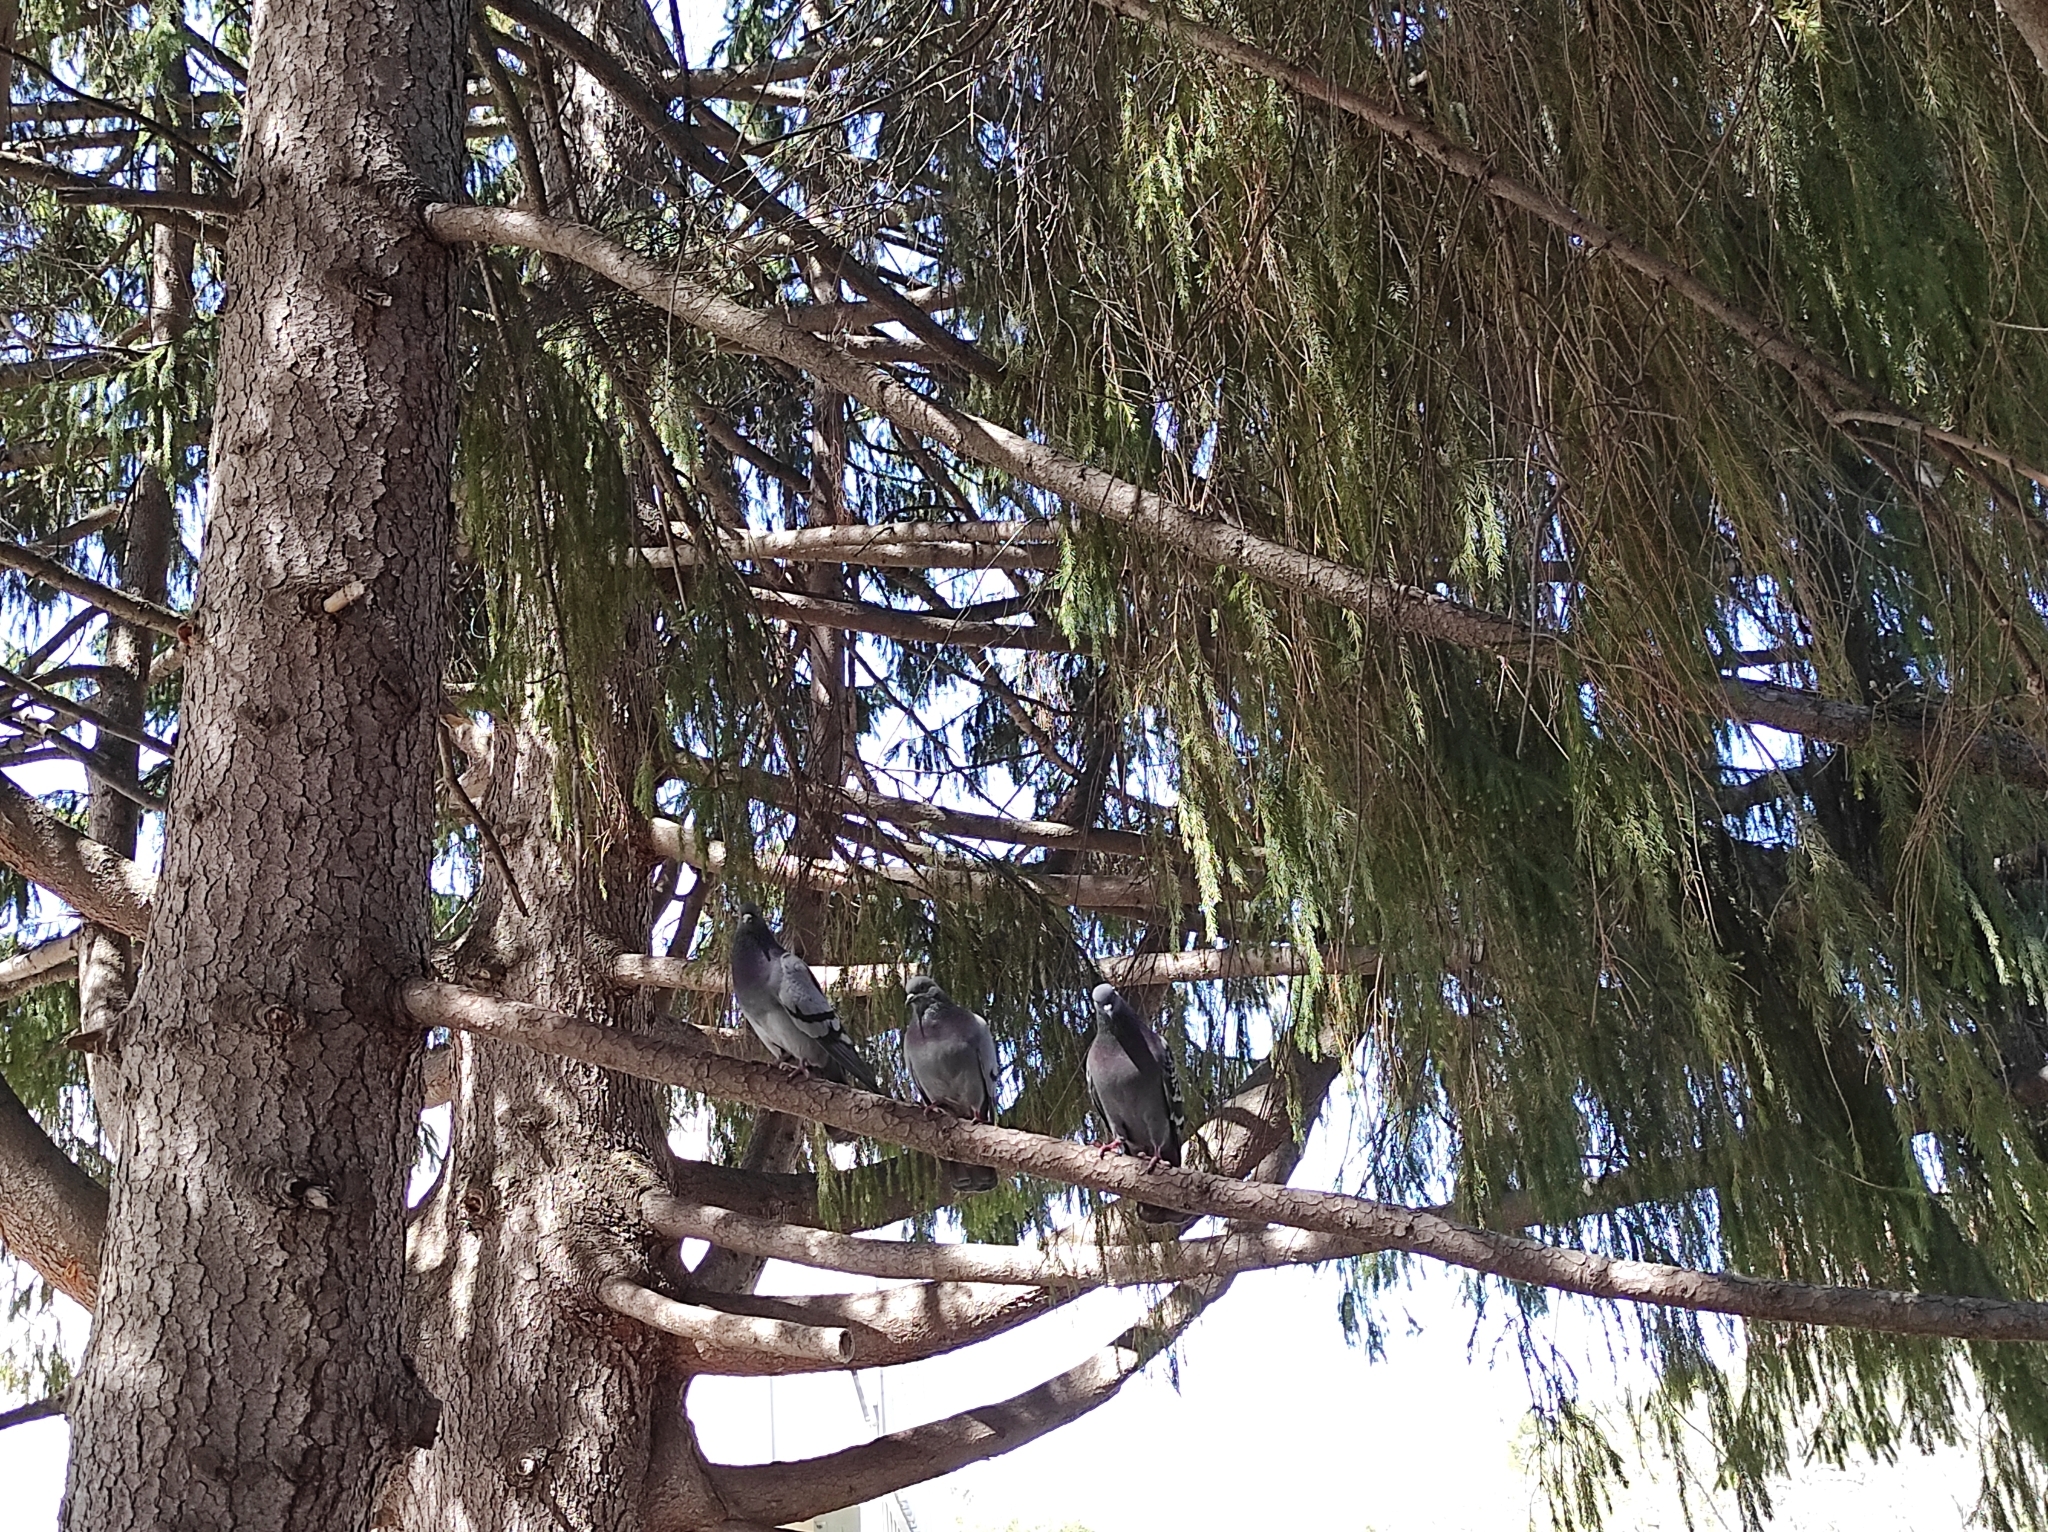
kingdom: Animalia
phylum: Chordata
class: Aves
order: Columbiformes
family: Columbidae
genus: Columba
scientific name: Columba livia
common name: Rock pigeon
